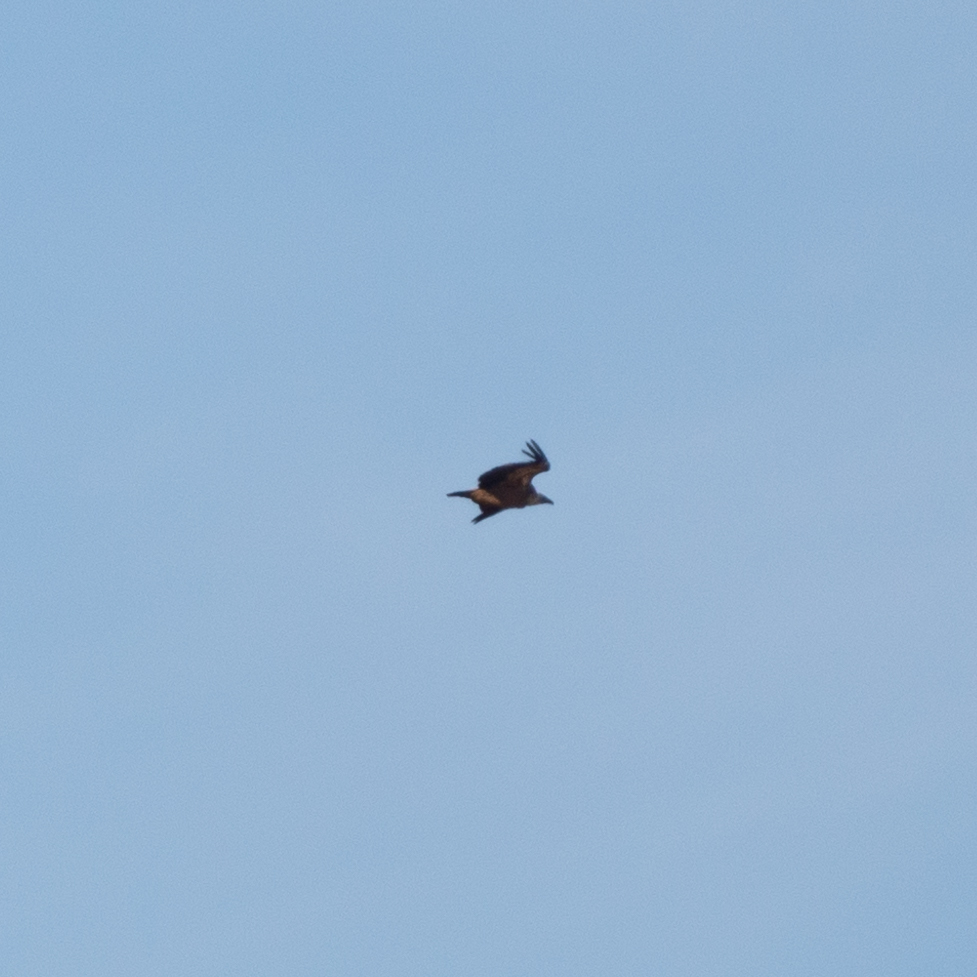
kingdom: Animalia
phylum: Chordata
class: Aves
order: Accipitriformes
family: Accipitridae
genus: Gyps
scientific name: Gyps fulvus
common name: Griffon vulture
